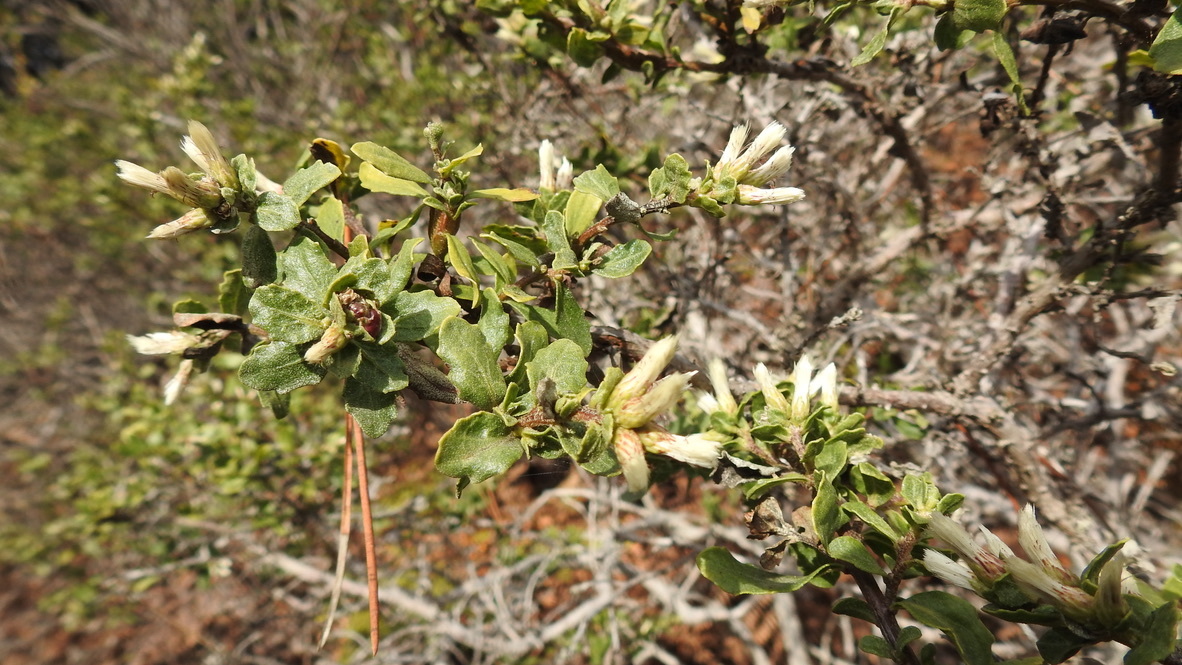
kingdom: Plantae
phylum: Tracheophyta
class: Magnoliopsida
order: Asterales
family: Asteraceae
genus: Baccharis
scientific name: Baccharis pilularis
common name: Coyotebrush
